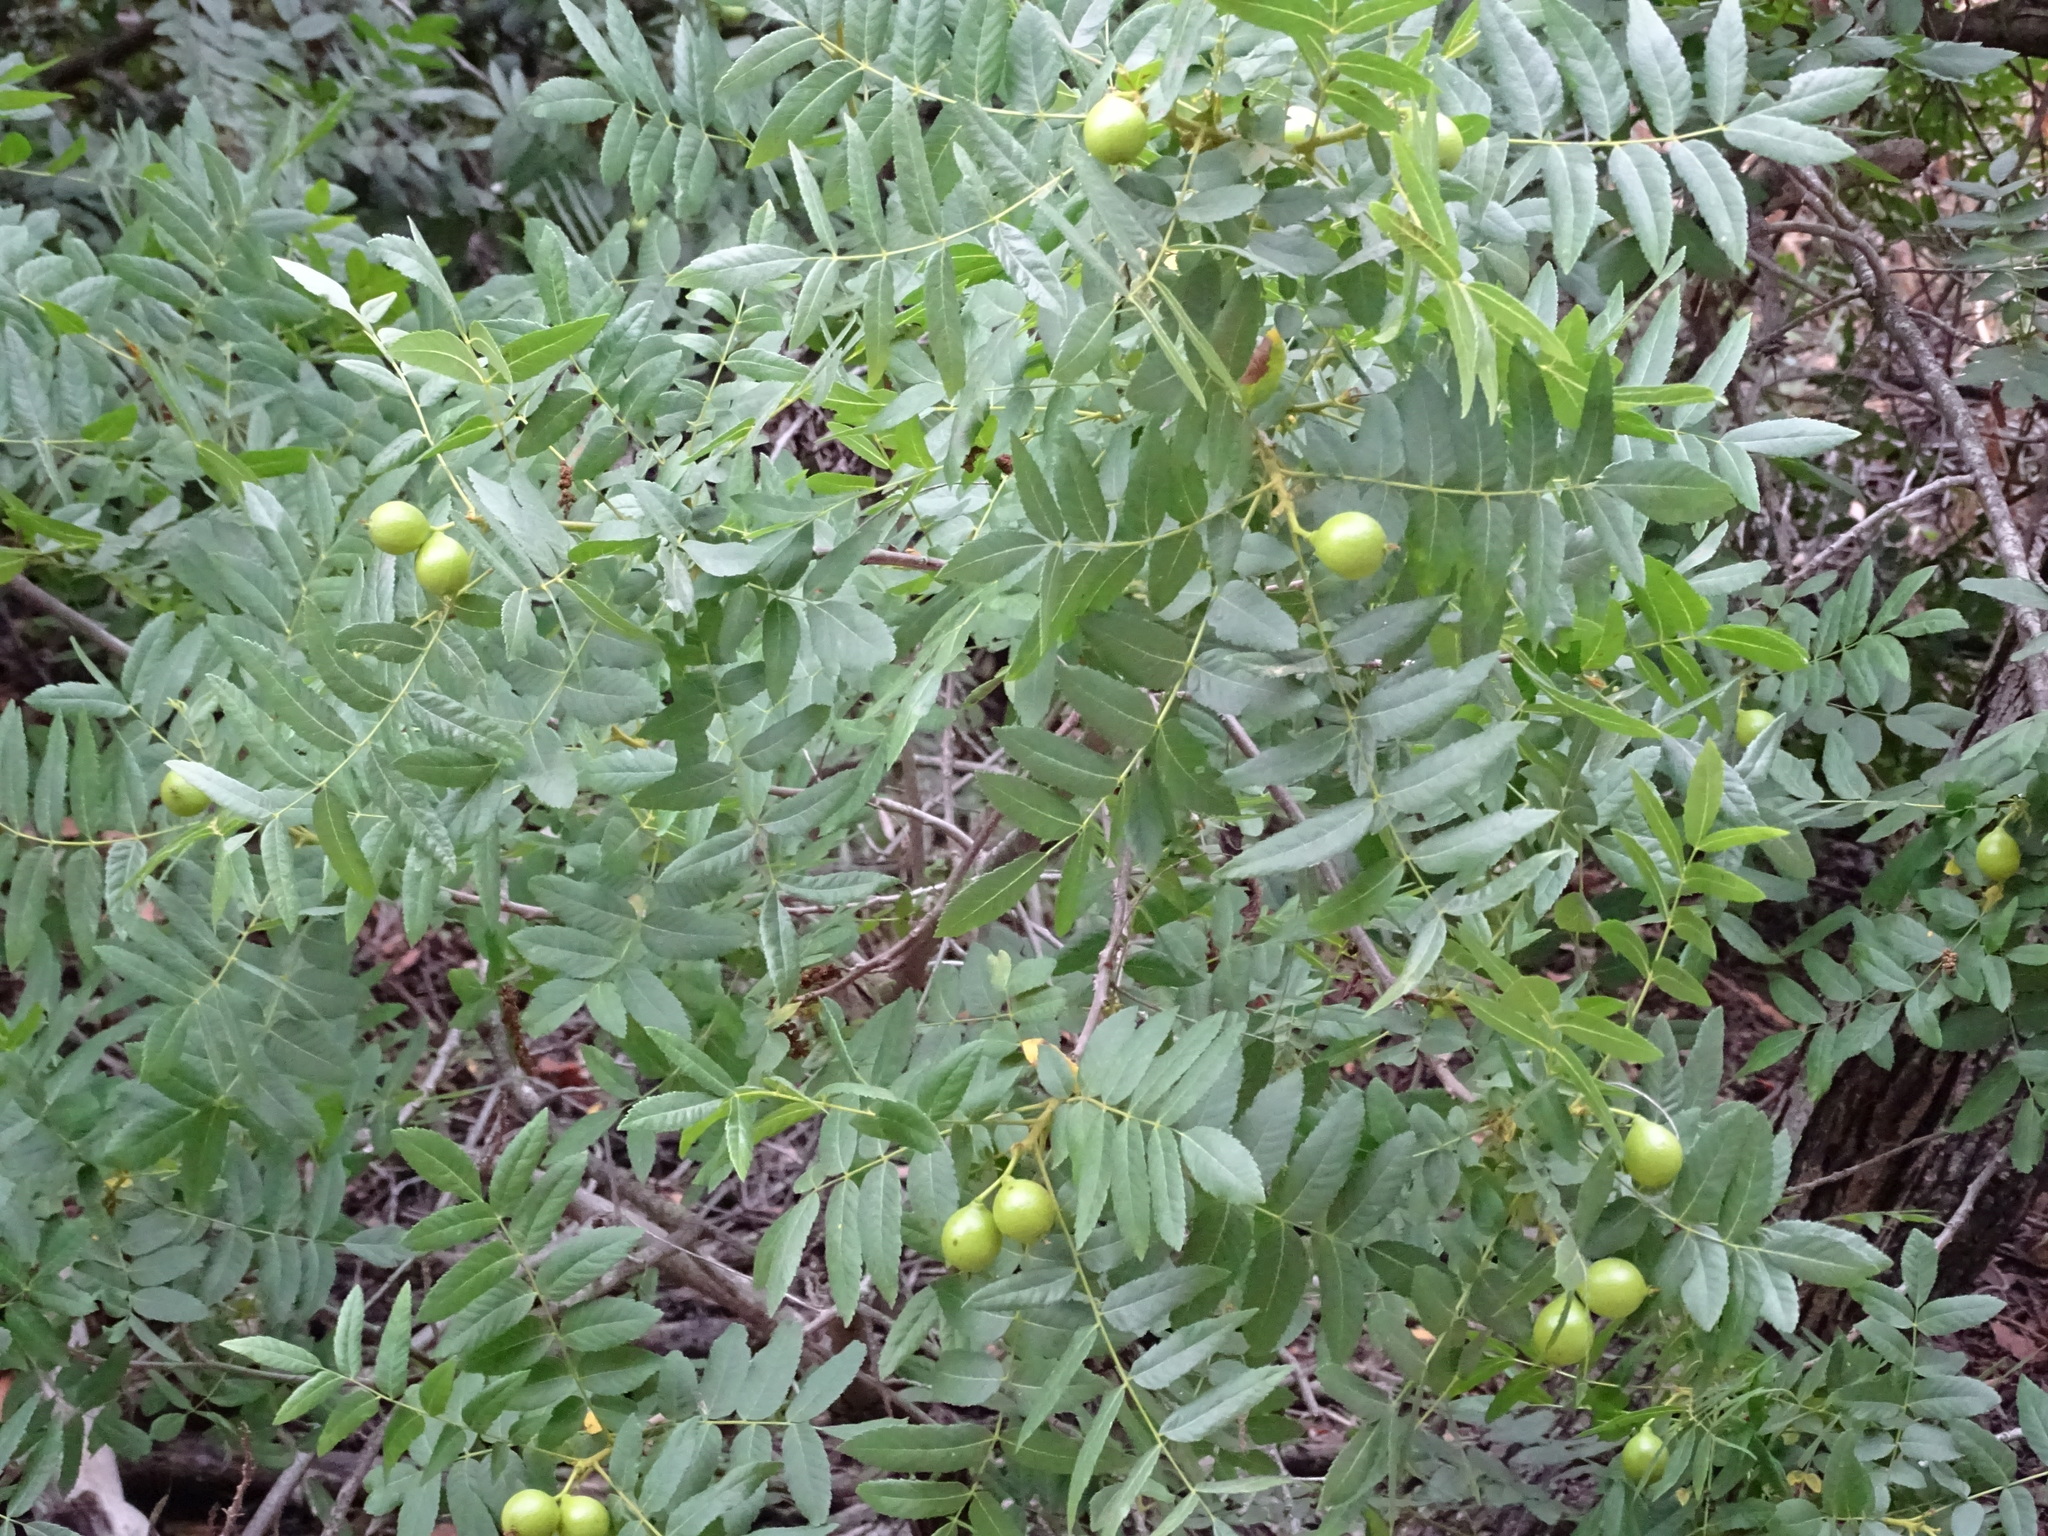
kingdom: Plantae
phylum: Tracheophyta
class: Magnoliopsida
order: Fagales
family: Juglandaceae
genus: Juglans
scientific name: Juglans californica
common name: Southern california black walnut
